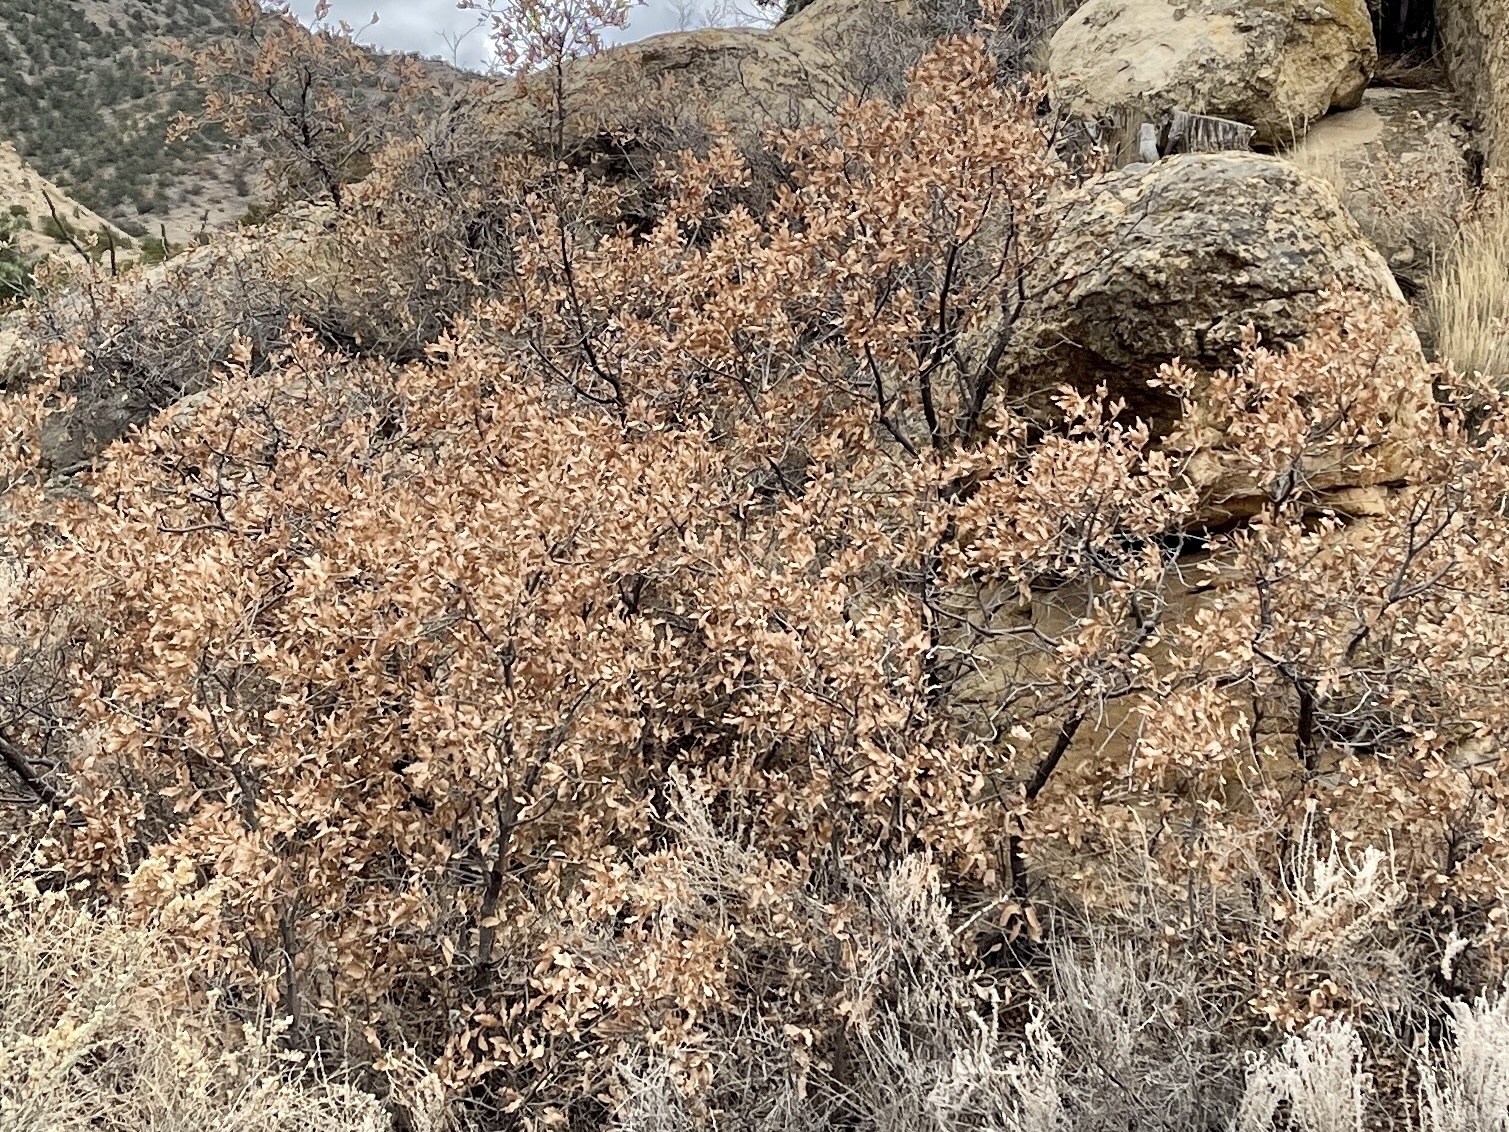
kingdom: Plantae
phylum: Tracheophyta
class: Magnoliopsida
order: Fagales
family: Fagaceae
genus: Quercus
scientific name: Quercus gambelii
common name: Gambel oak
